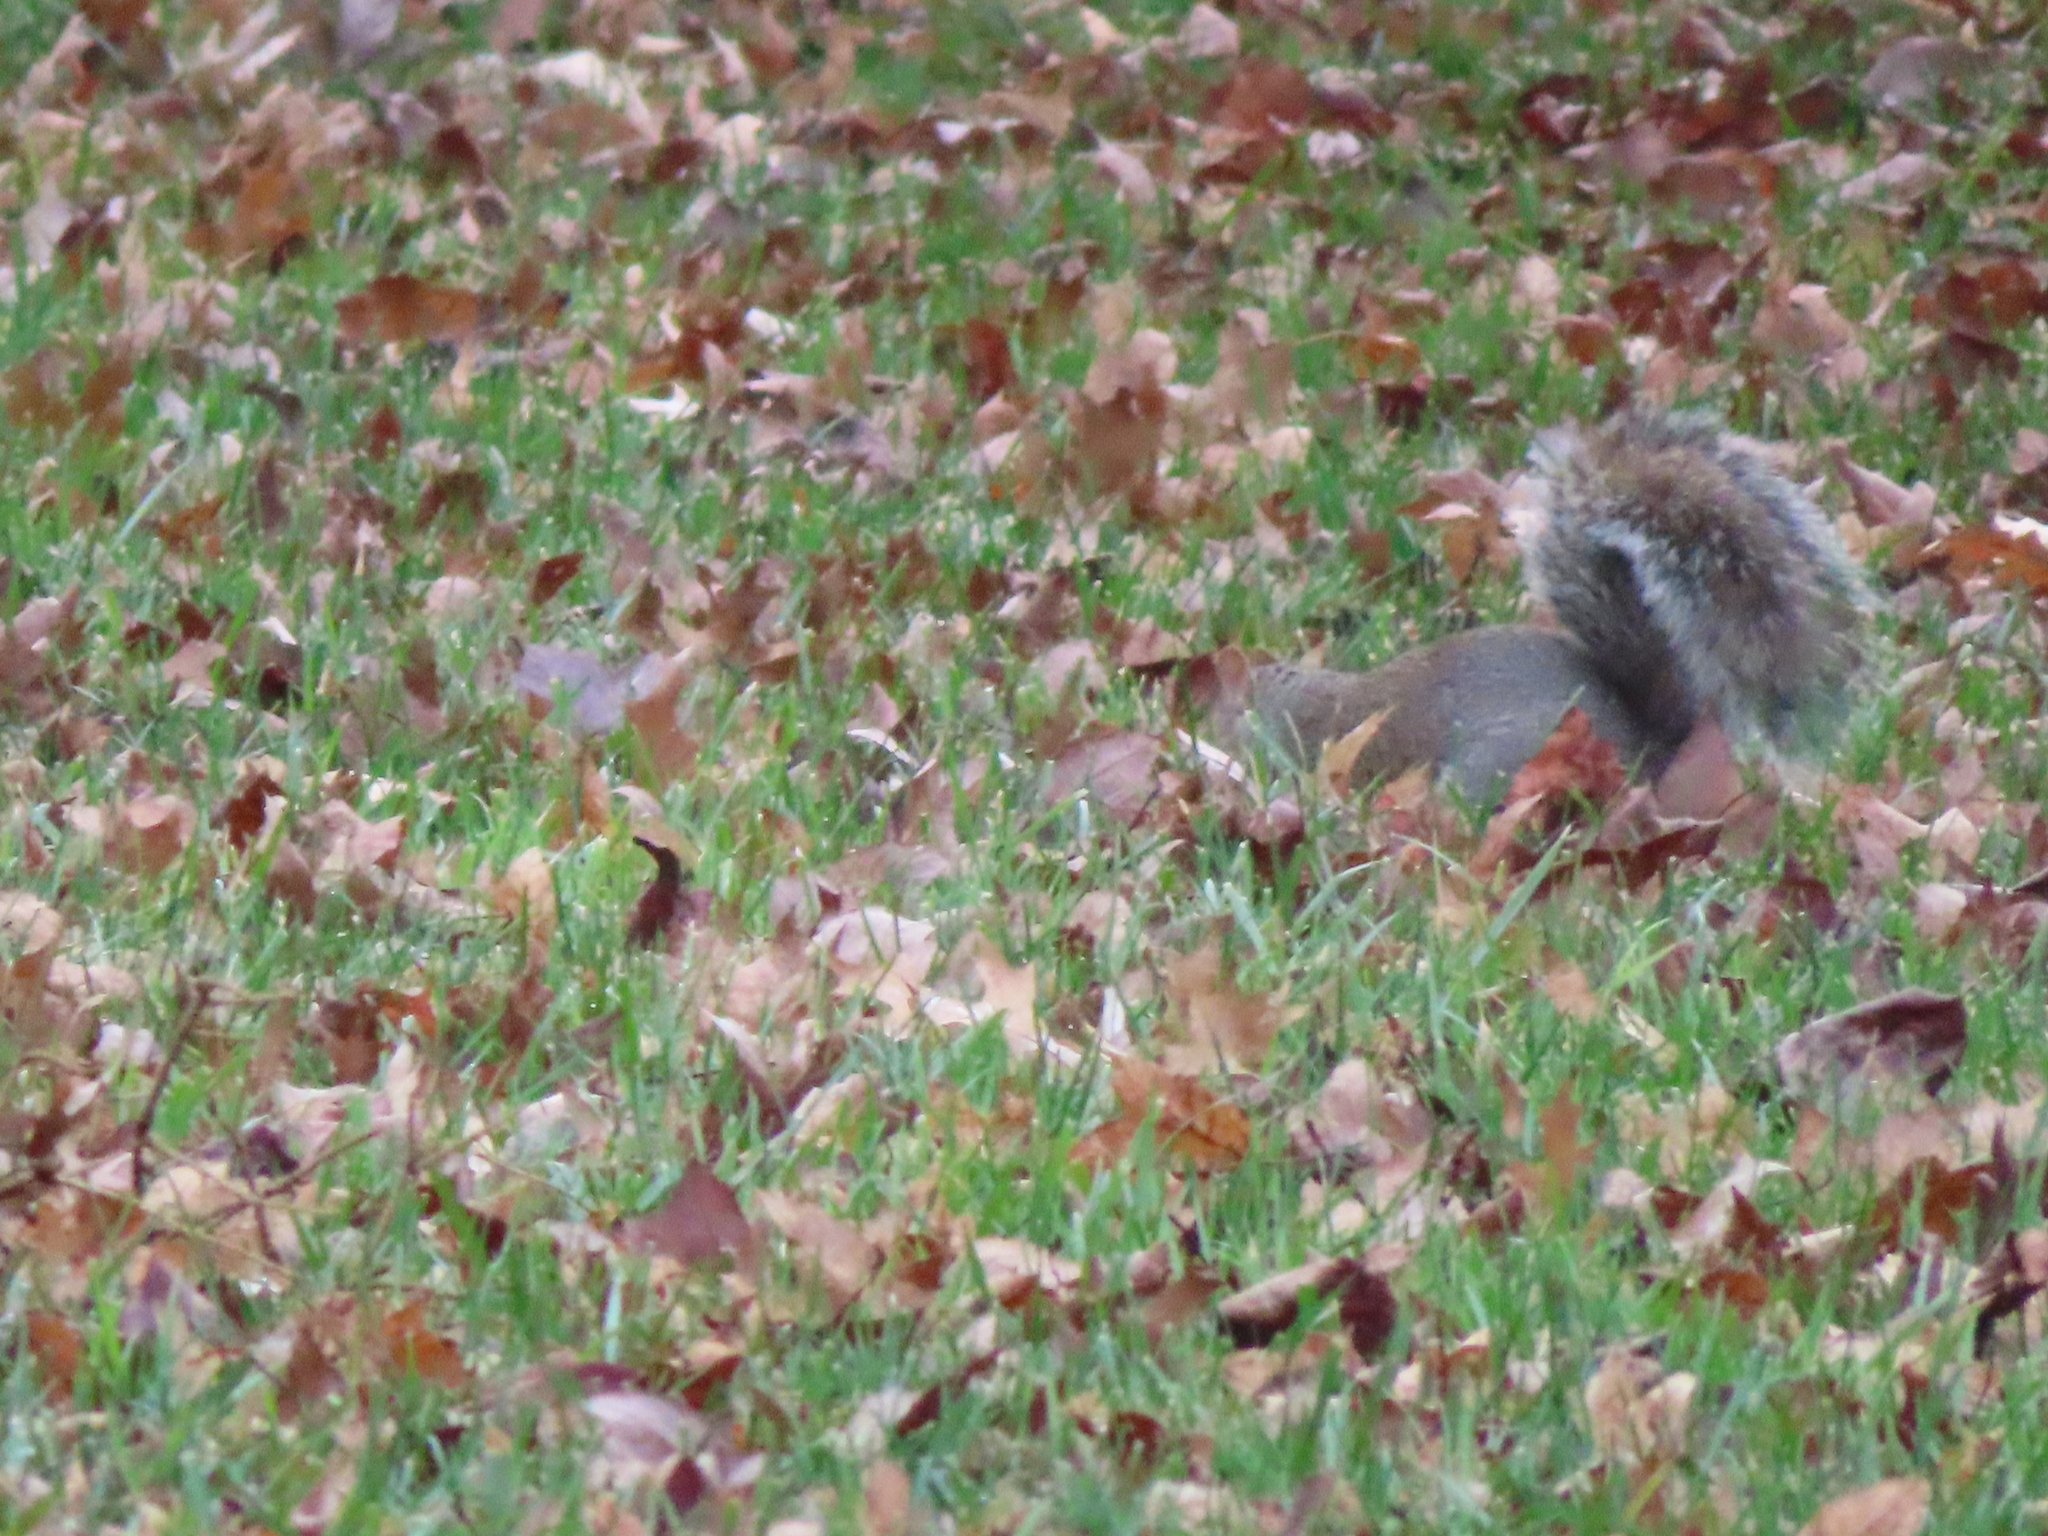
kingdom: Animalia
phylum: Chordata
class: Mammalia
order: Rodentia
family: Sciuridae
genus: Sciurus
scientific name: Sciurus carolinensis
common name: Eastern gray squirrel
